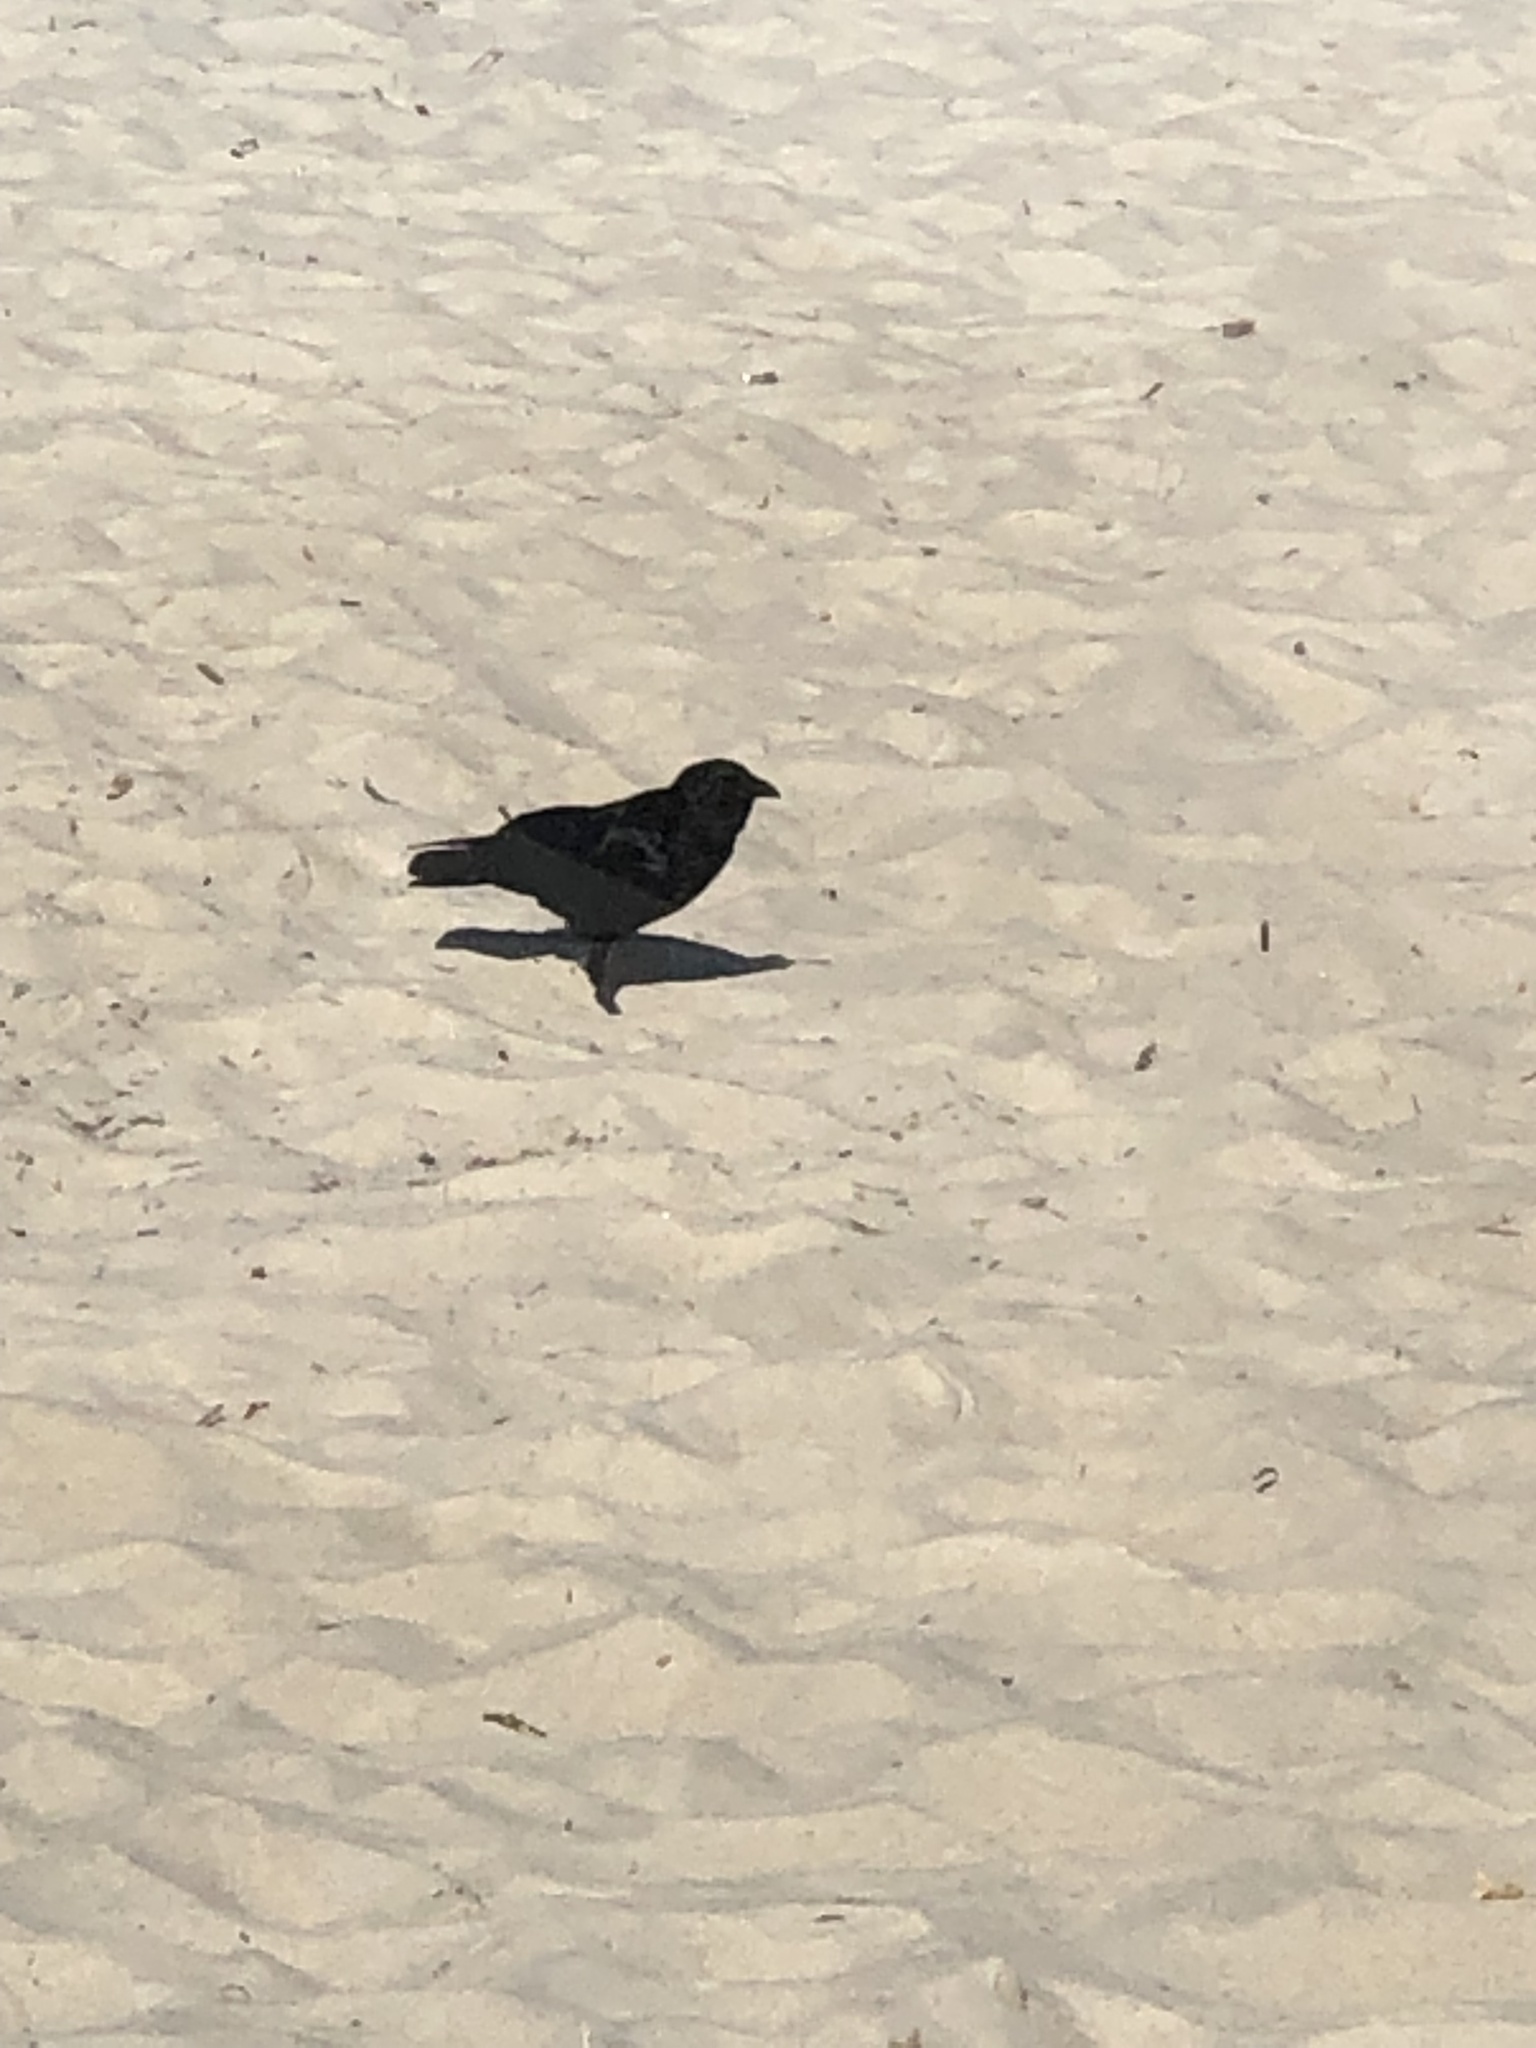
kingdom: Animalia
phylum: Chordata
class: Aves
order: Passeriformes
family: Corvidae
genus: Corvus
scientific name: Corvus
